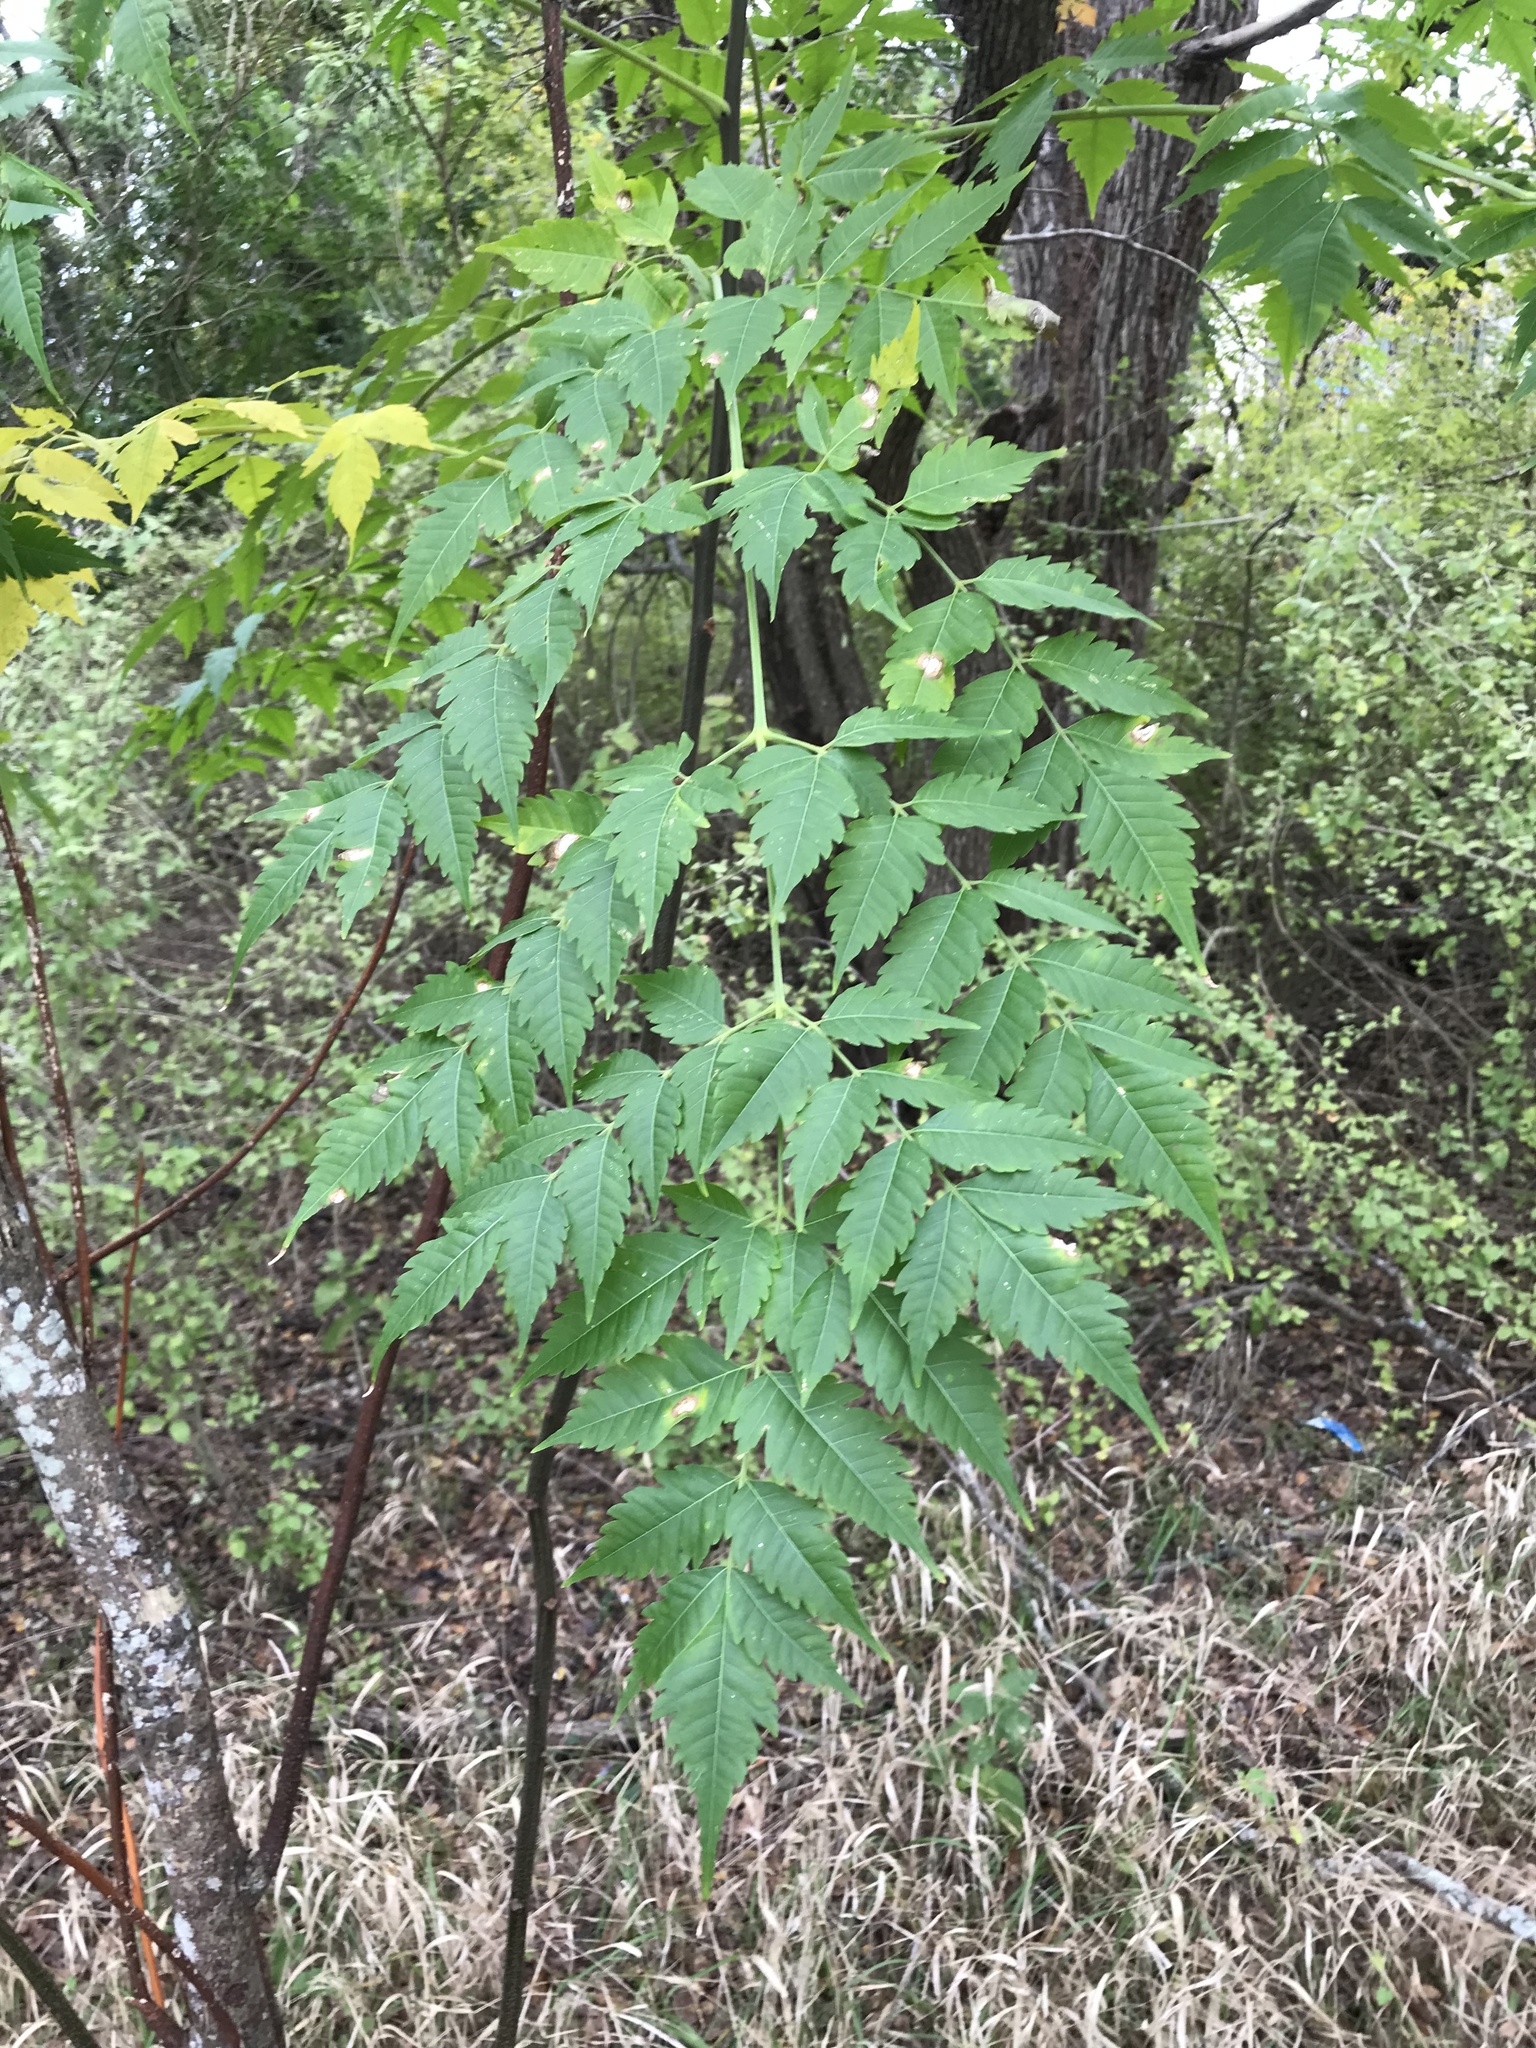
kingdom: Plantae
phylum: Tracheophyta
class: Magnoliopsida
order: Sapindales
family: Meliaceae
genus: Melia
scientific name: Melia azedarach
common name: Chinaberrytree
